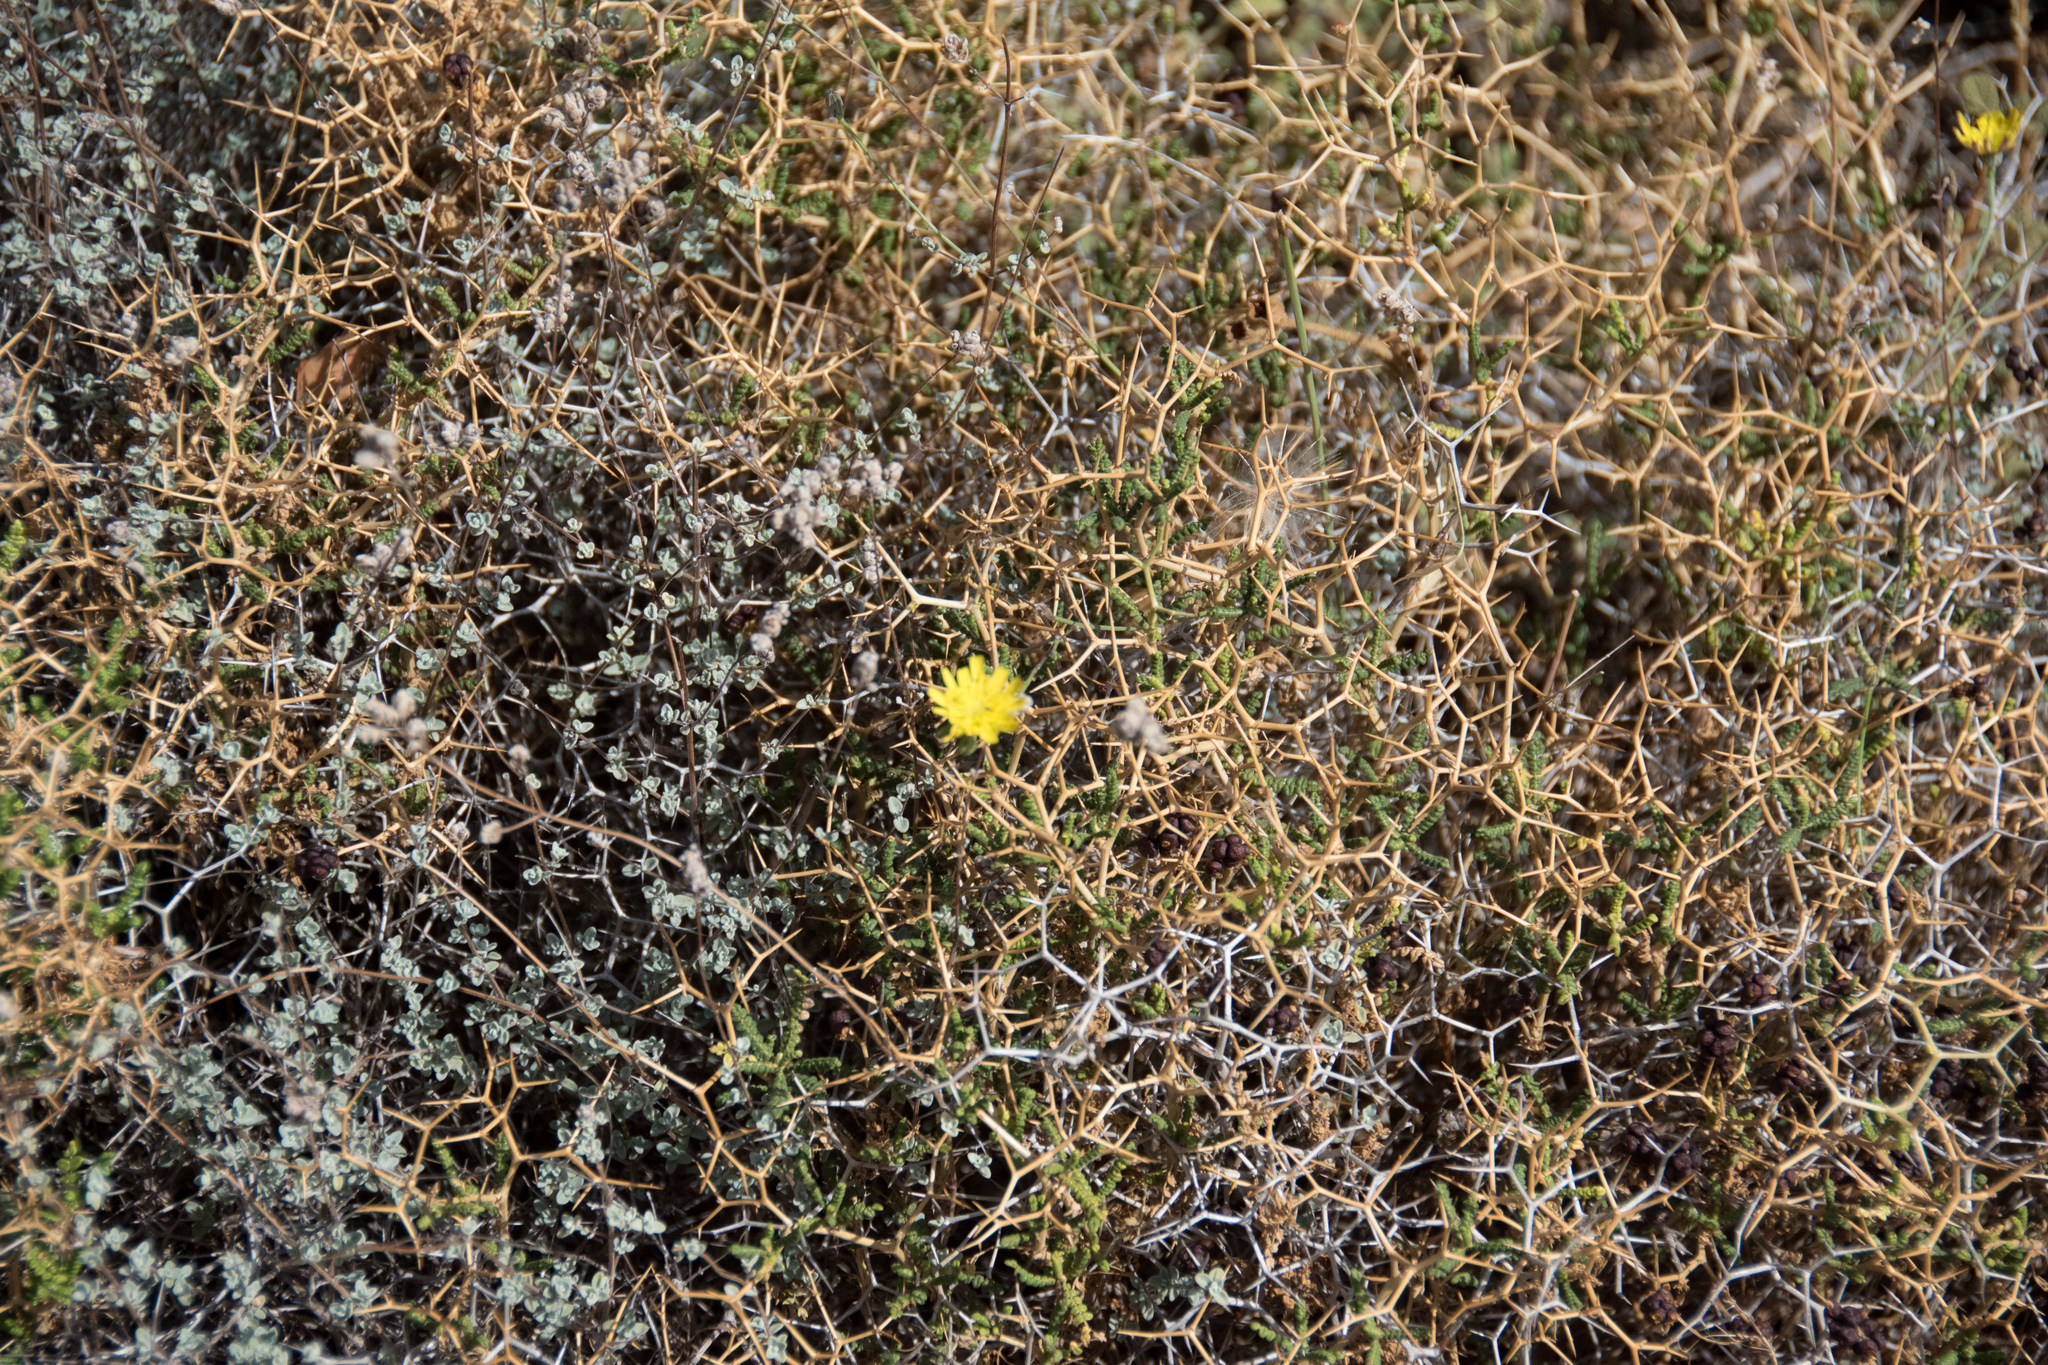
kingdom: Plantae
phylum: Tracheophyta
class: Magnoliopsida
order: Rosales
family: Rosaceae
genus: Sarcopoterium
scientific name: Sarcopoterium spinosum
